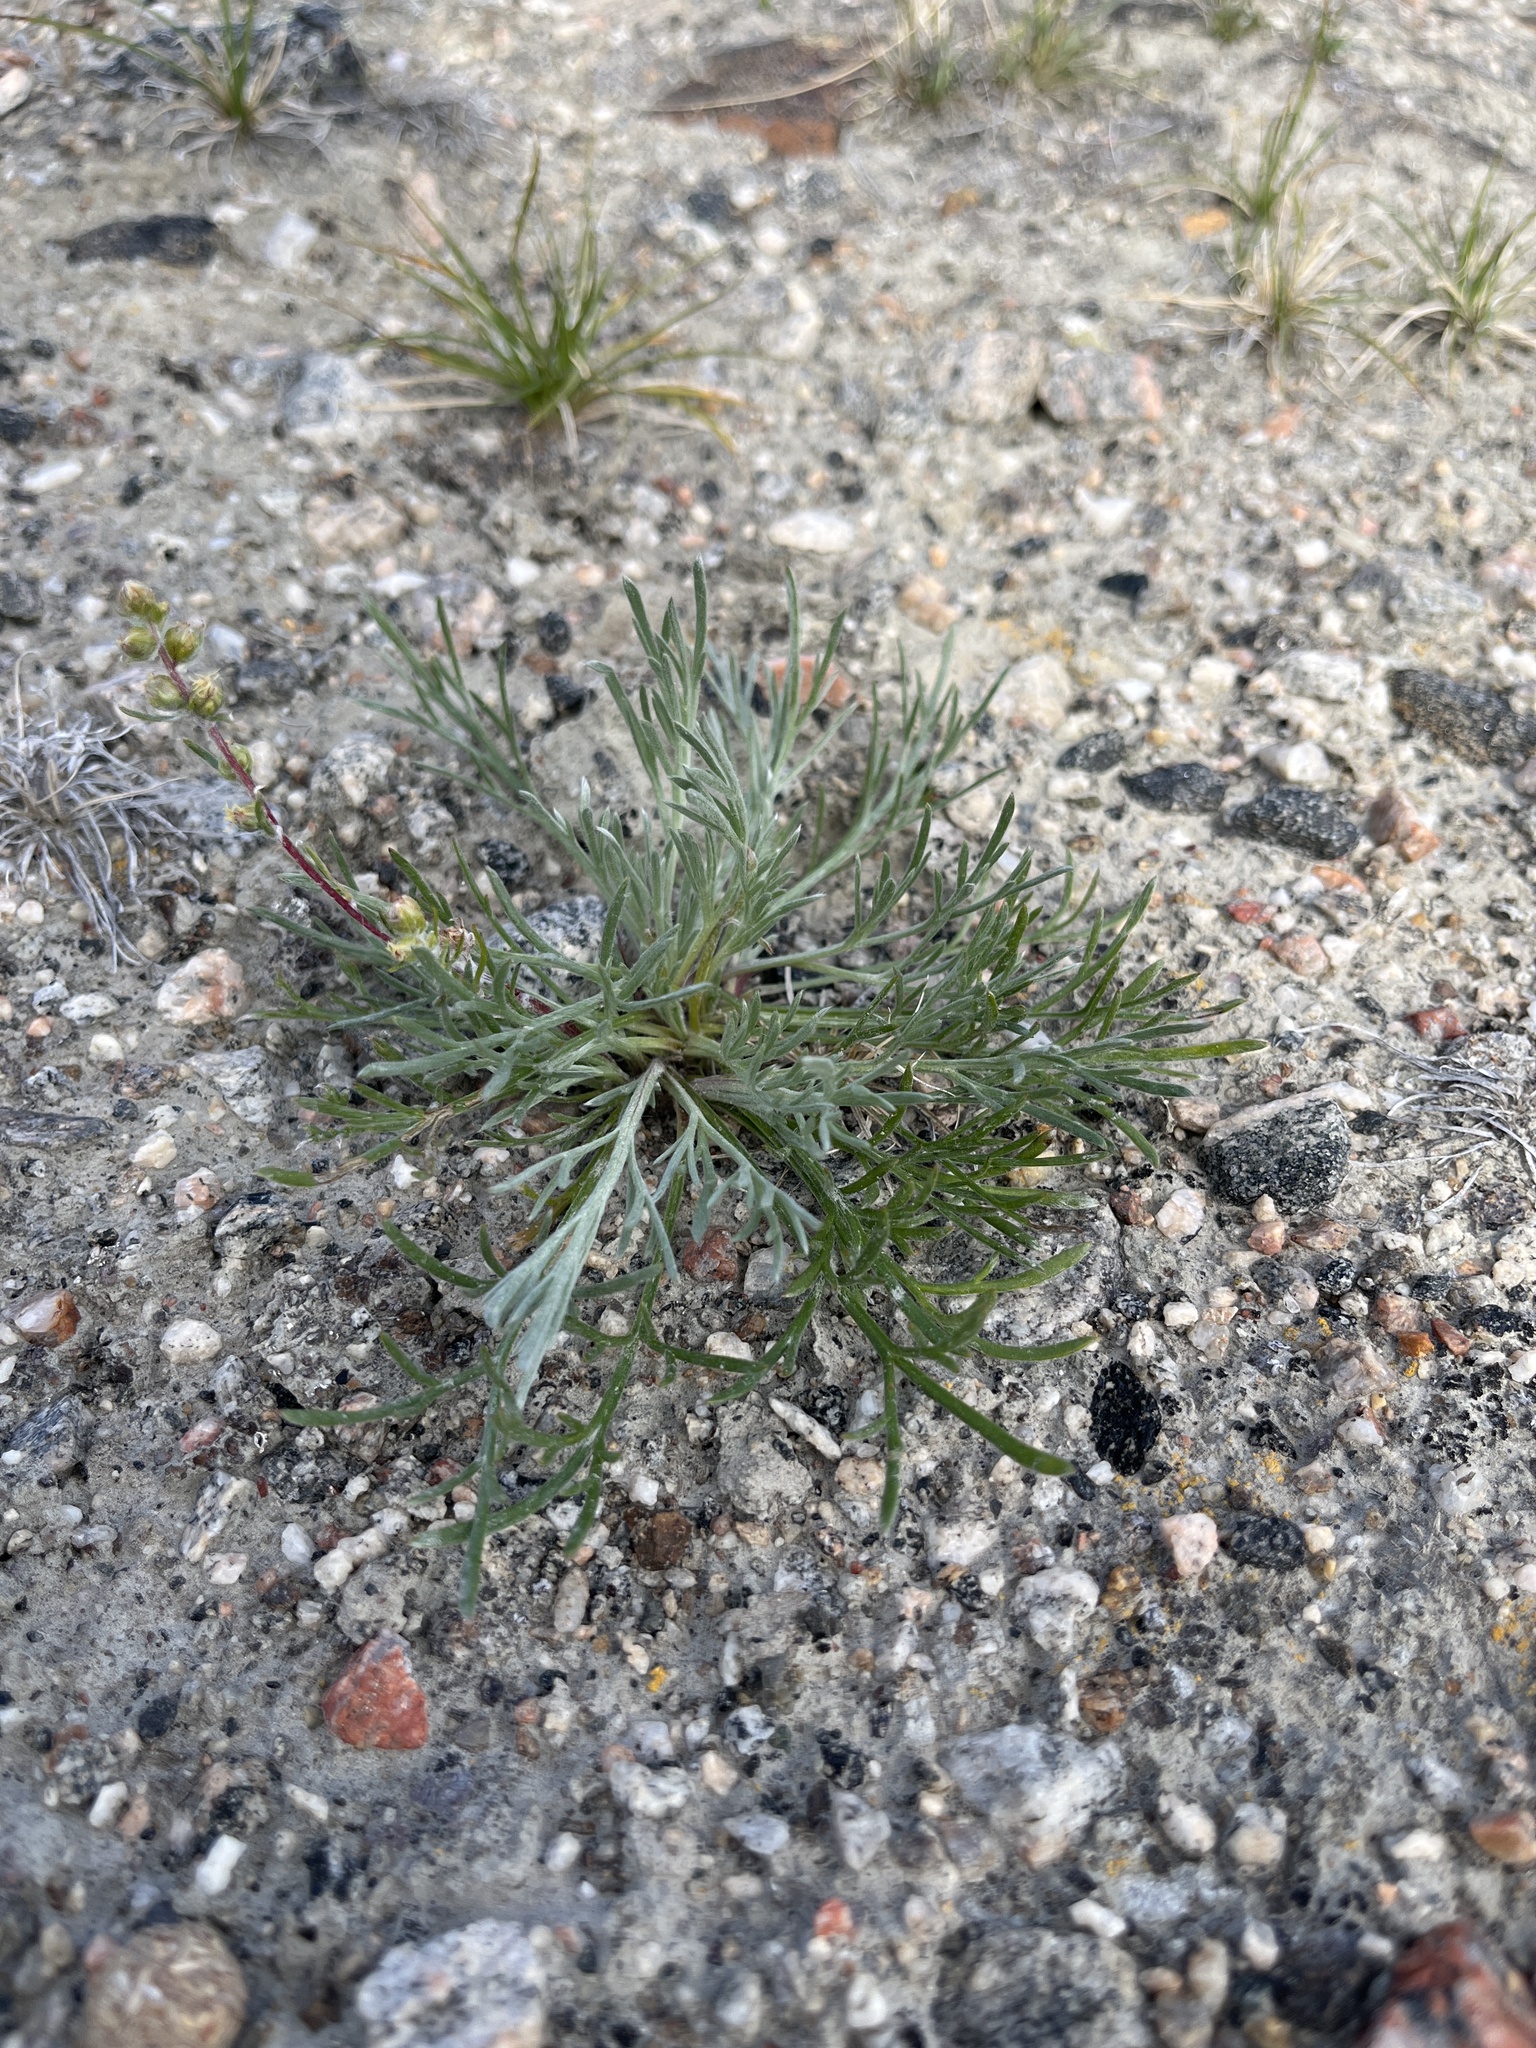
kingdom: Plantae
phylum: Tracheophyta
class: Magnoliopsida
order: Asterales
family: Asteraceae
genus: Artemisia
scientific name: Artemisia borealis
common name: Boreal sage
